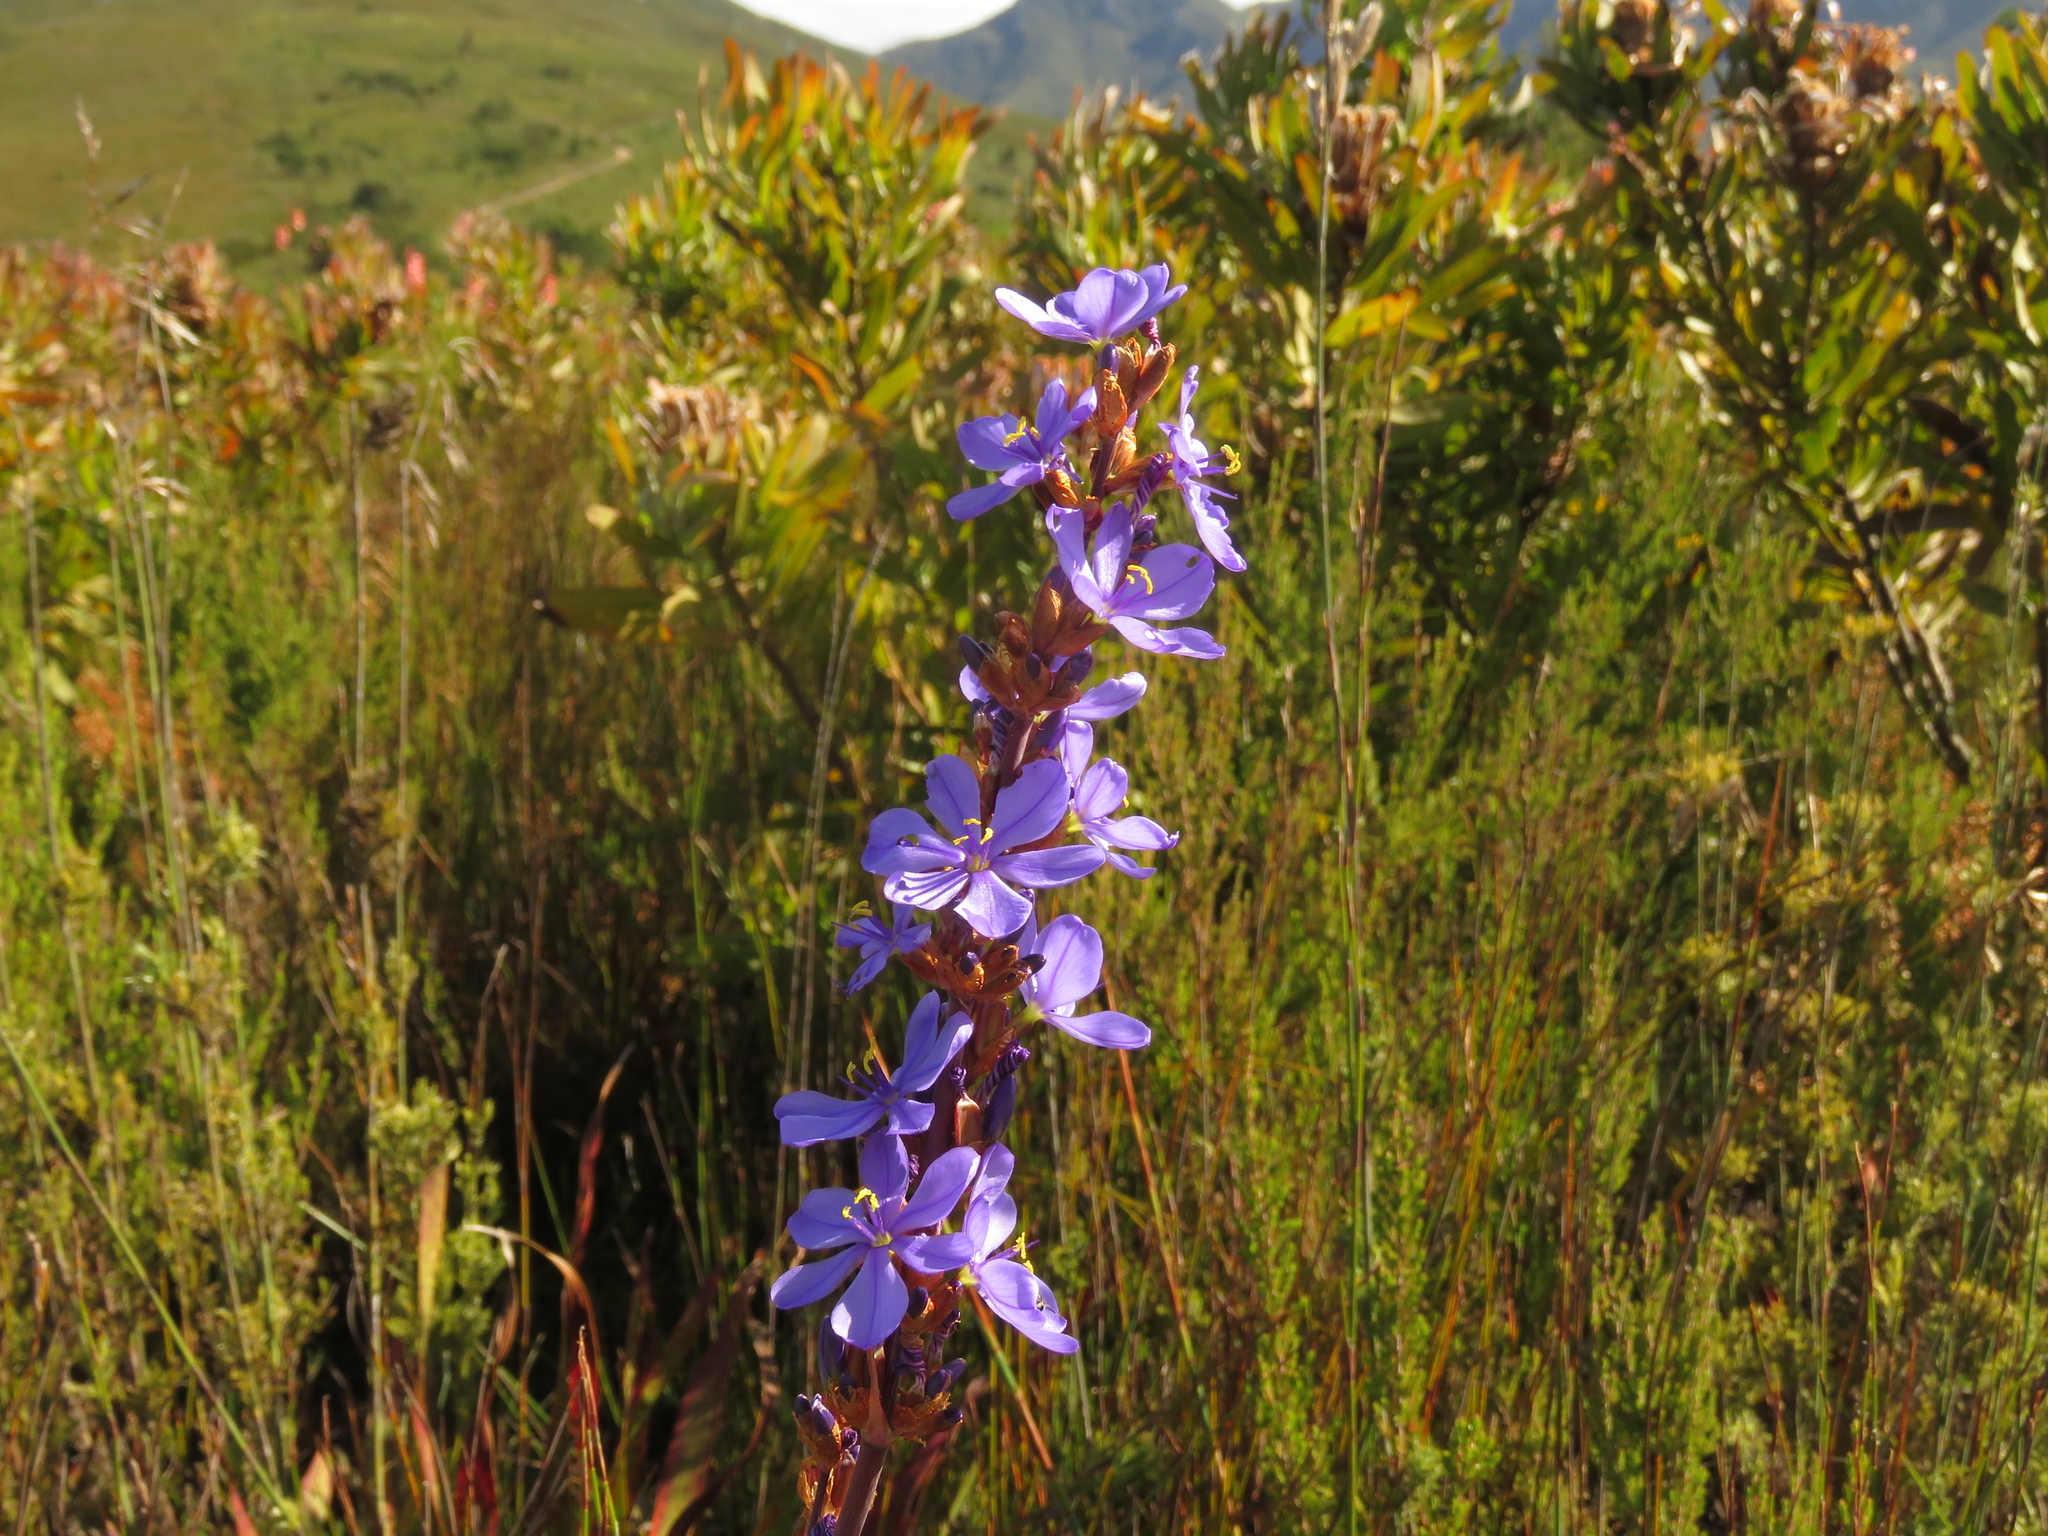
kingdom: Plantae
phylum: Tracheophyta
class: Liliopsida
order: Asparagales
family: Iridaceae
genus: Aristea
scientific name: Aristea bakeri
